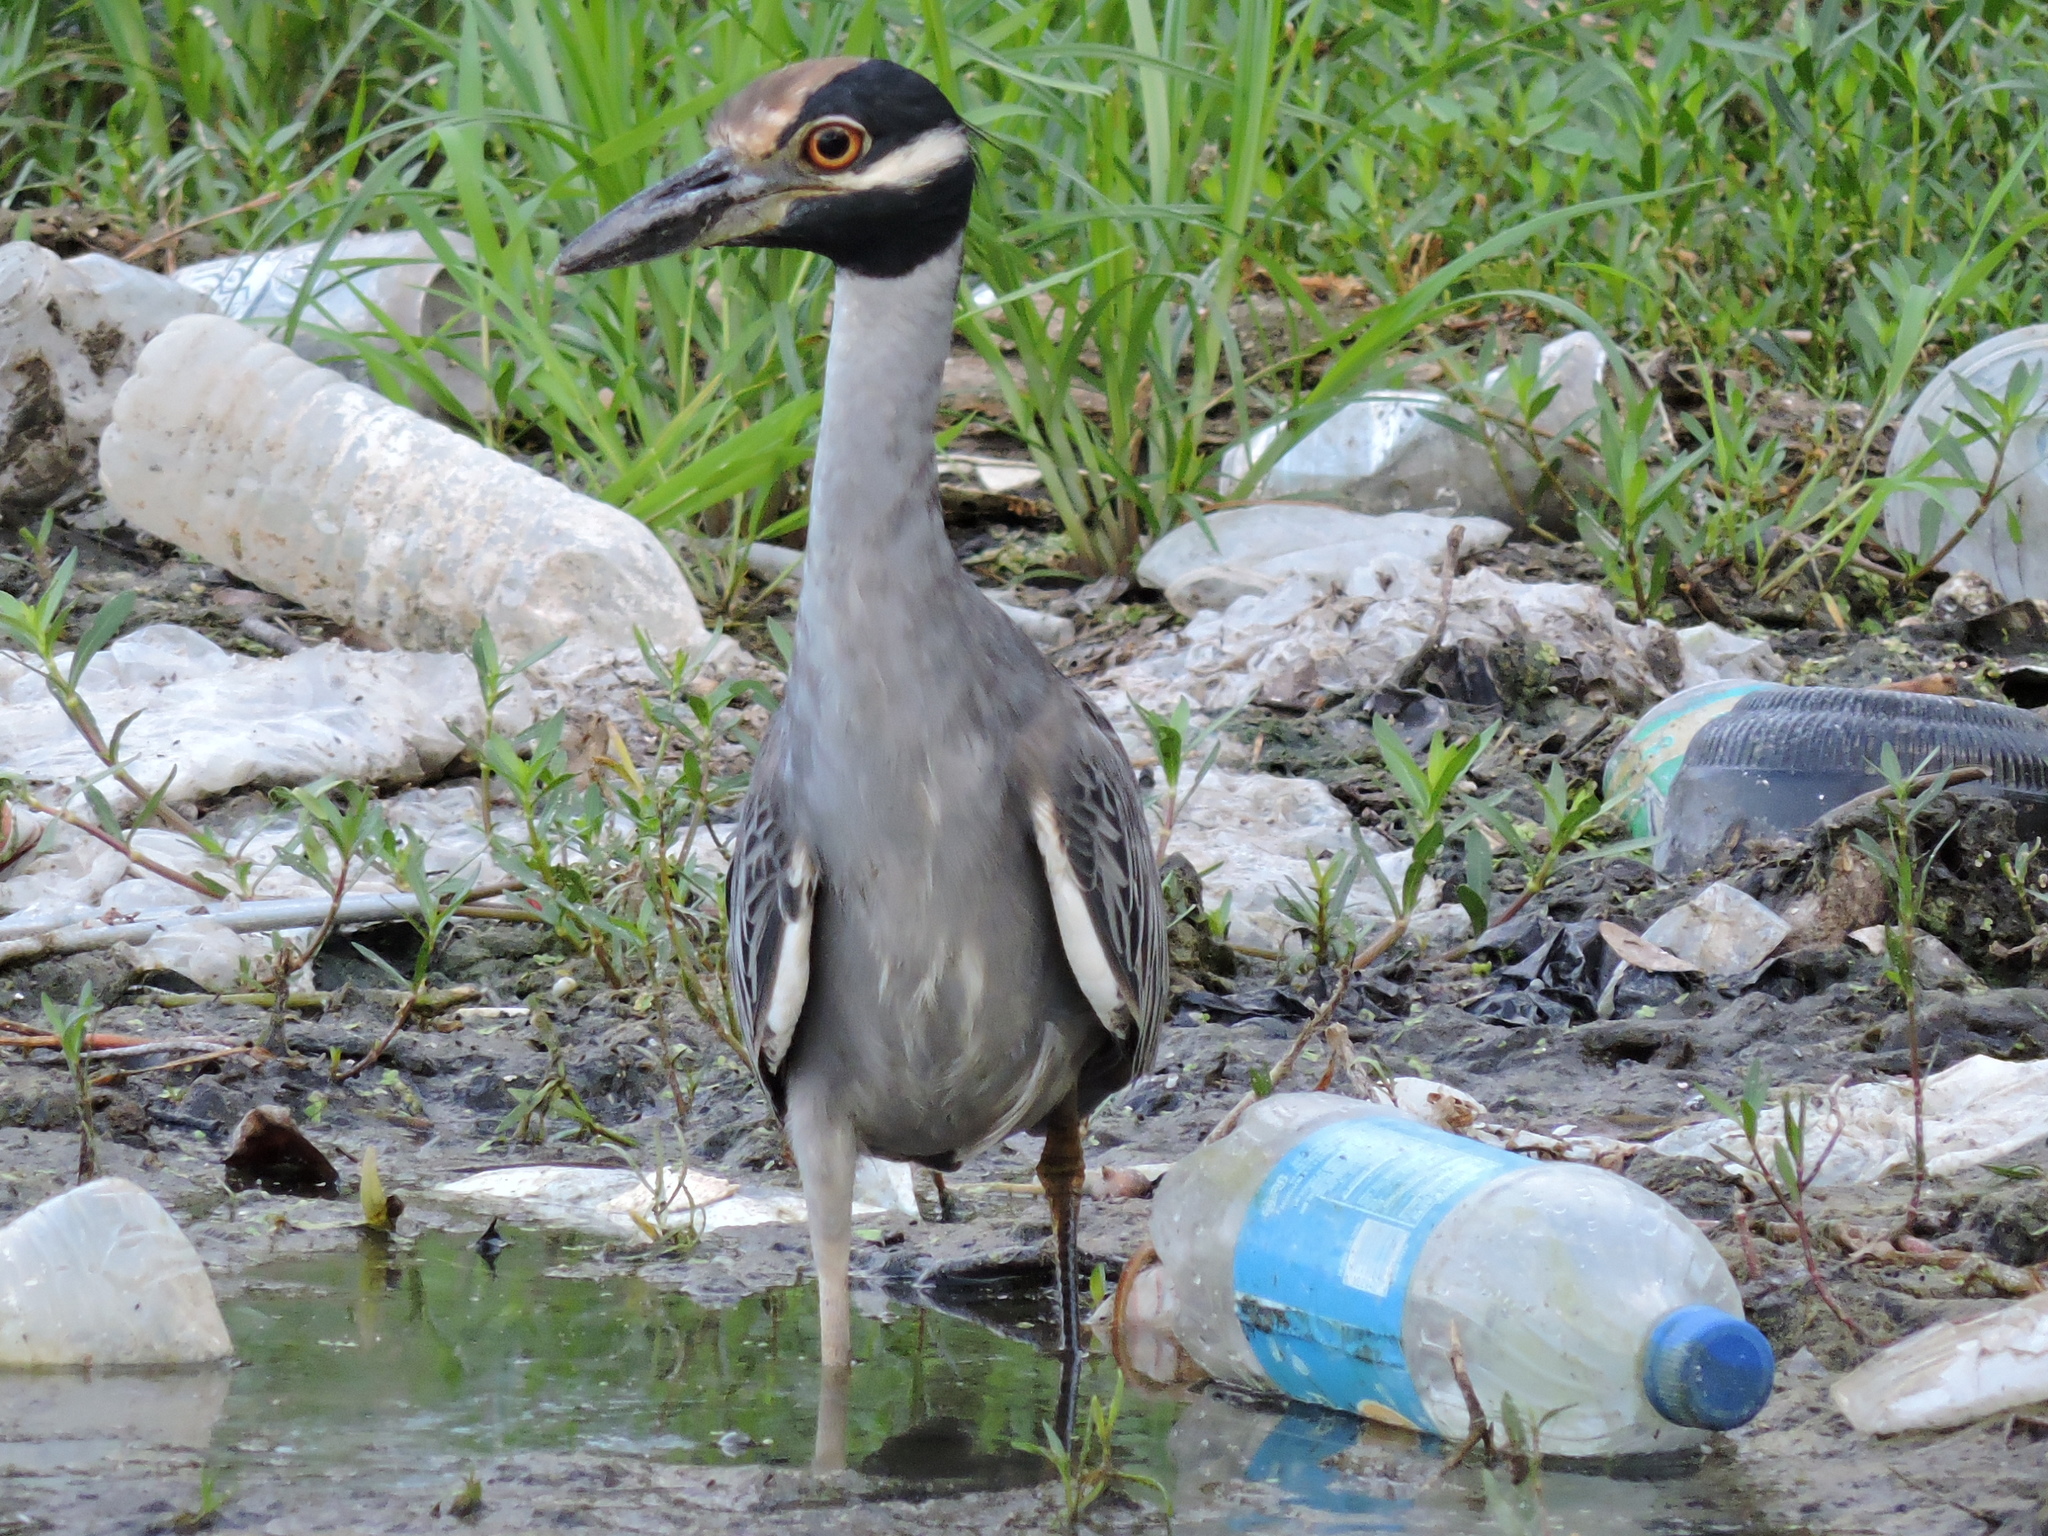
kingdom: Animalia
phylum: Chordata
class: Aves
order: Pelecaniformes
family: Ardeidae
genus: Nyctanassa
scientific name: Nyctanassa violacea
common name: Yellow-crowned night heron
